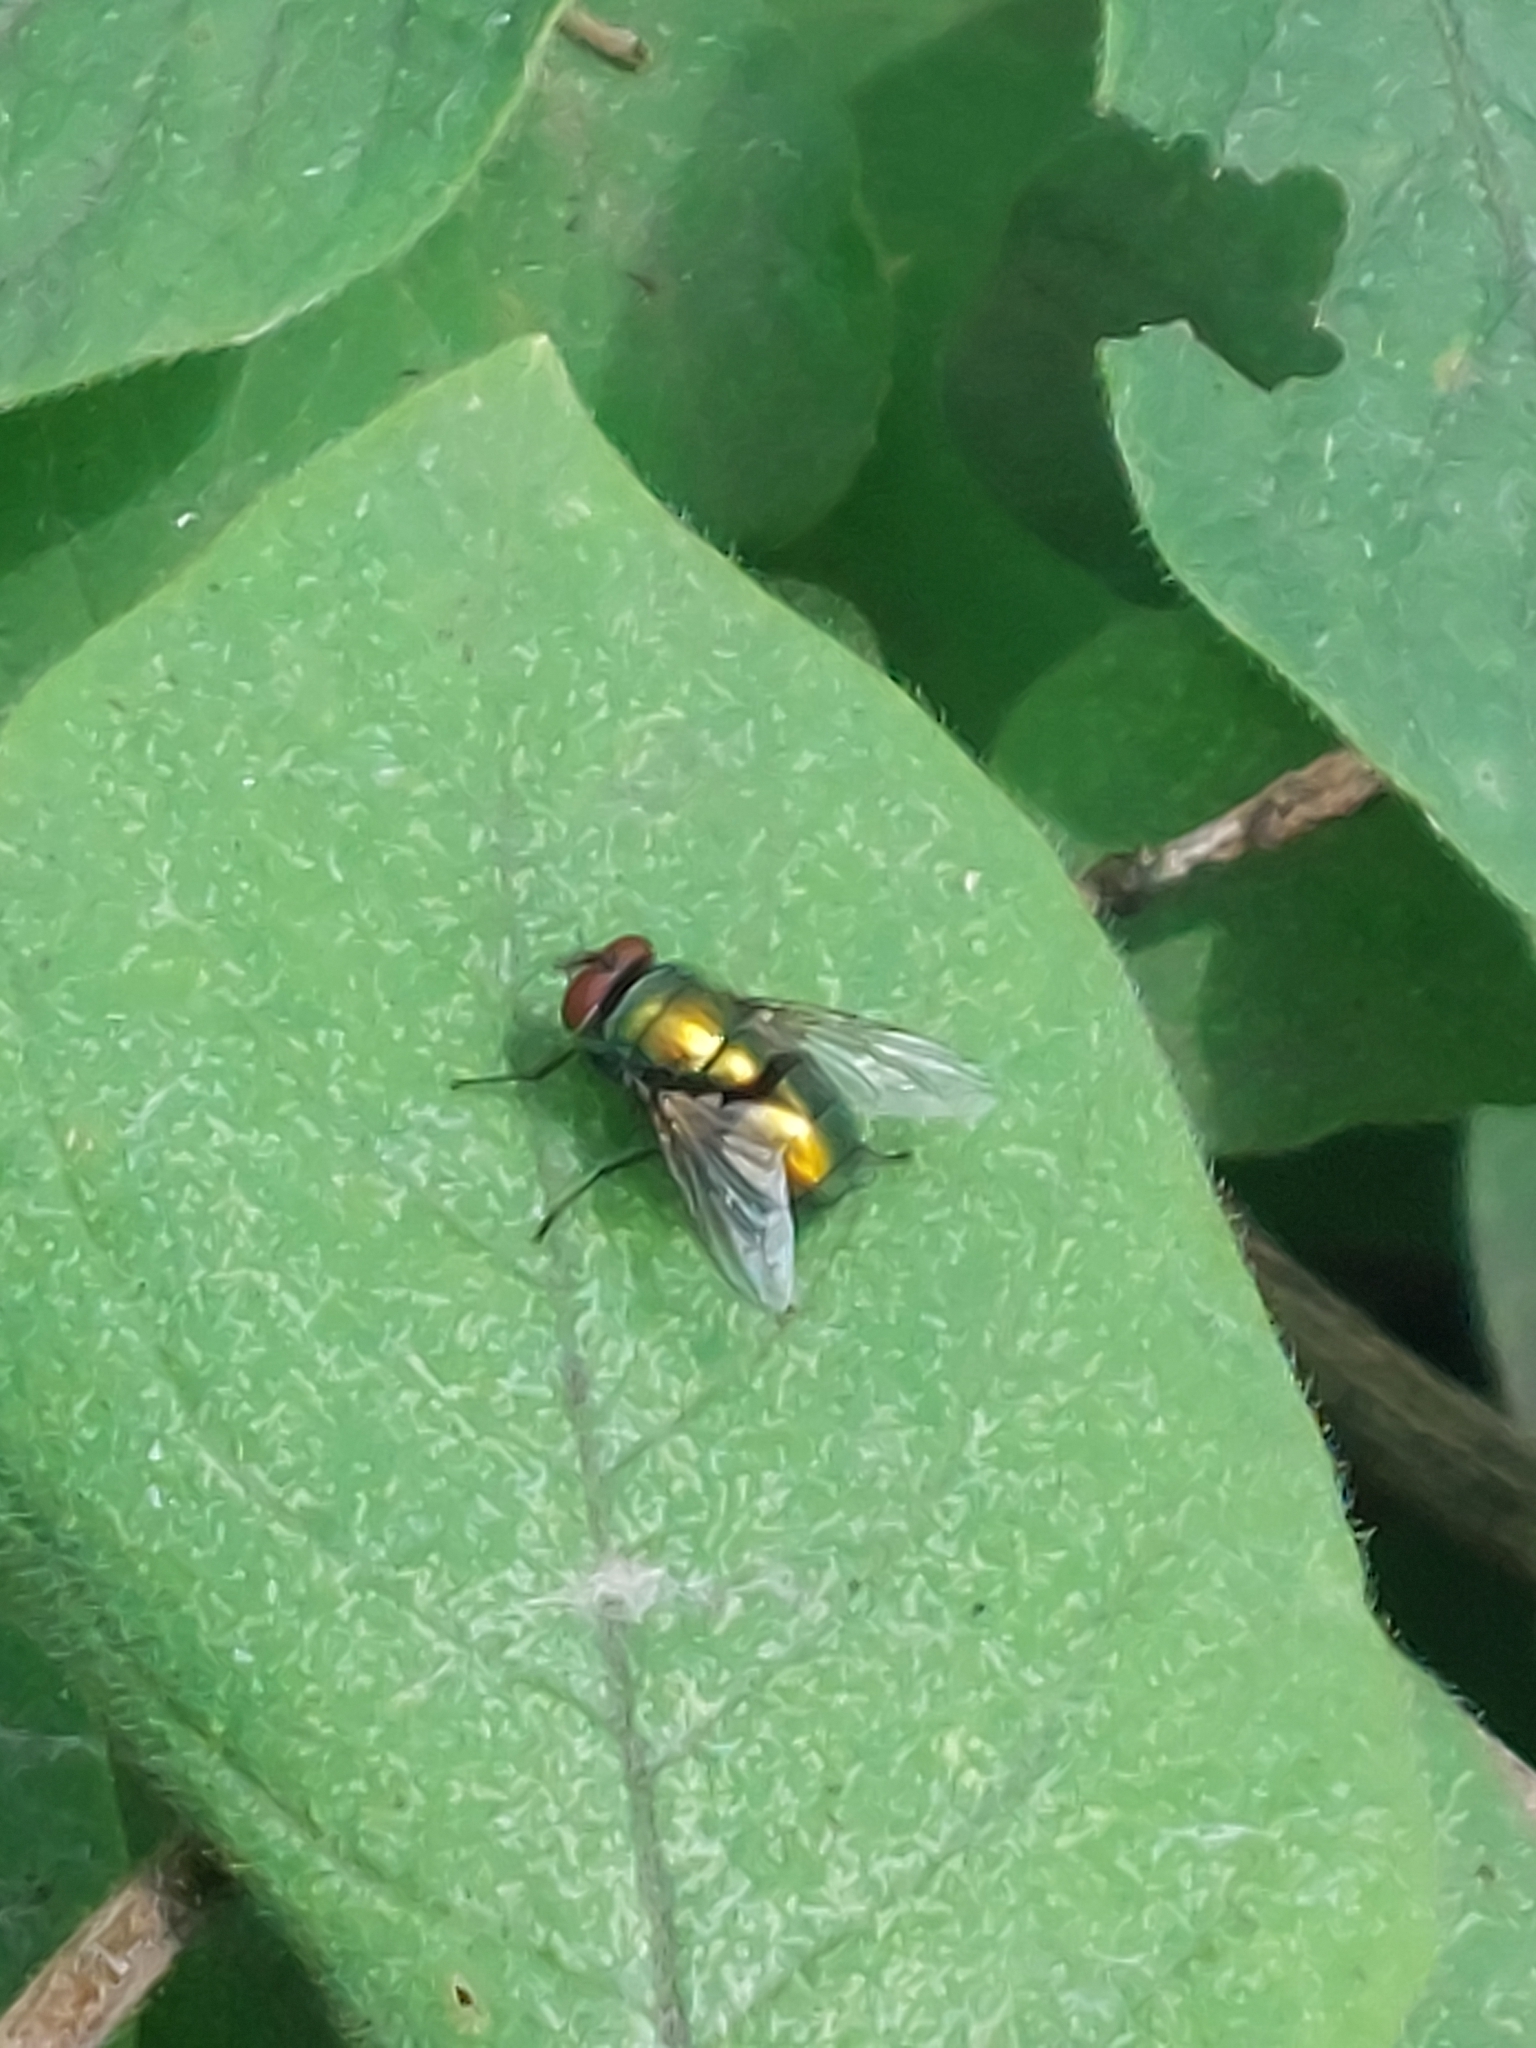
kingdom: Animalia
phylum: Arthropoda
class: Insecta
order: Diptera
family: Calliphoridae
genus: Lucilia
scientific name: Lucilia
